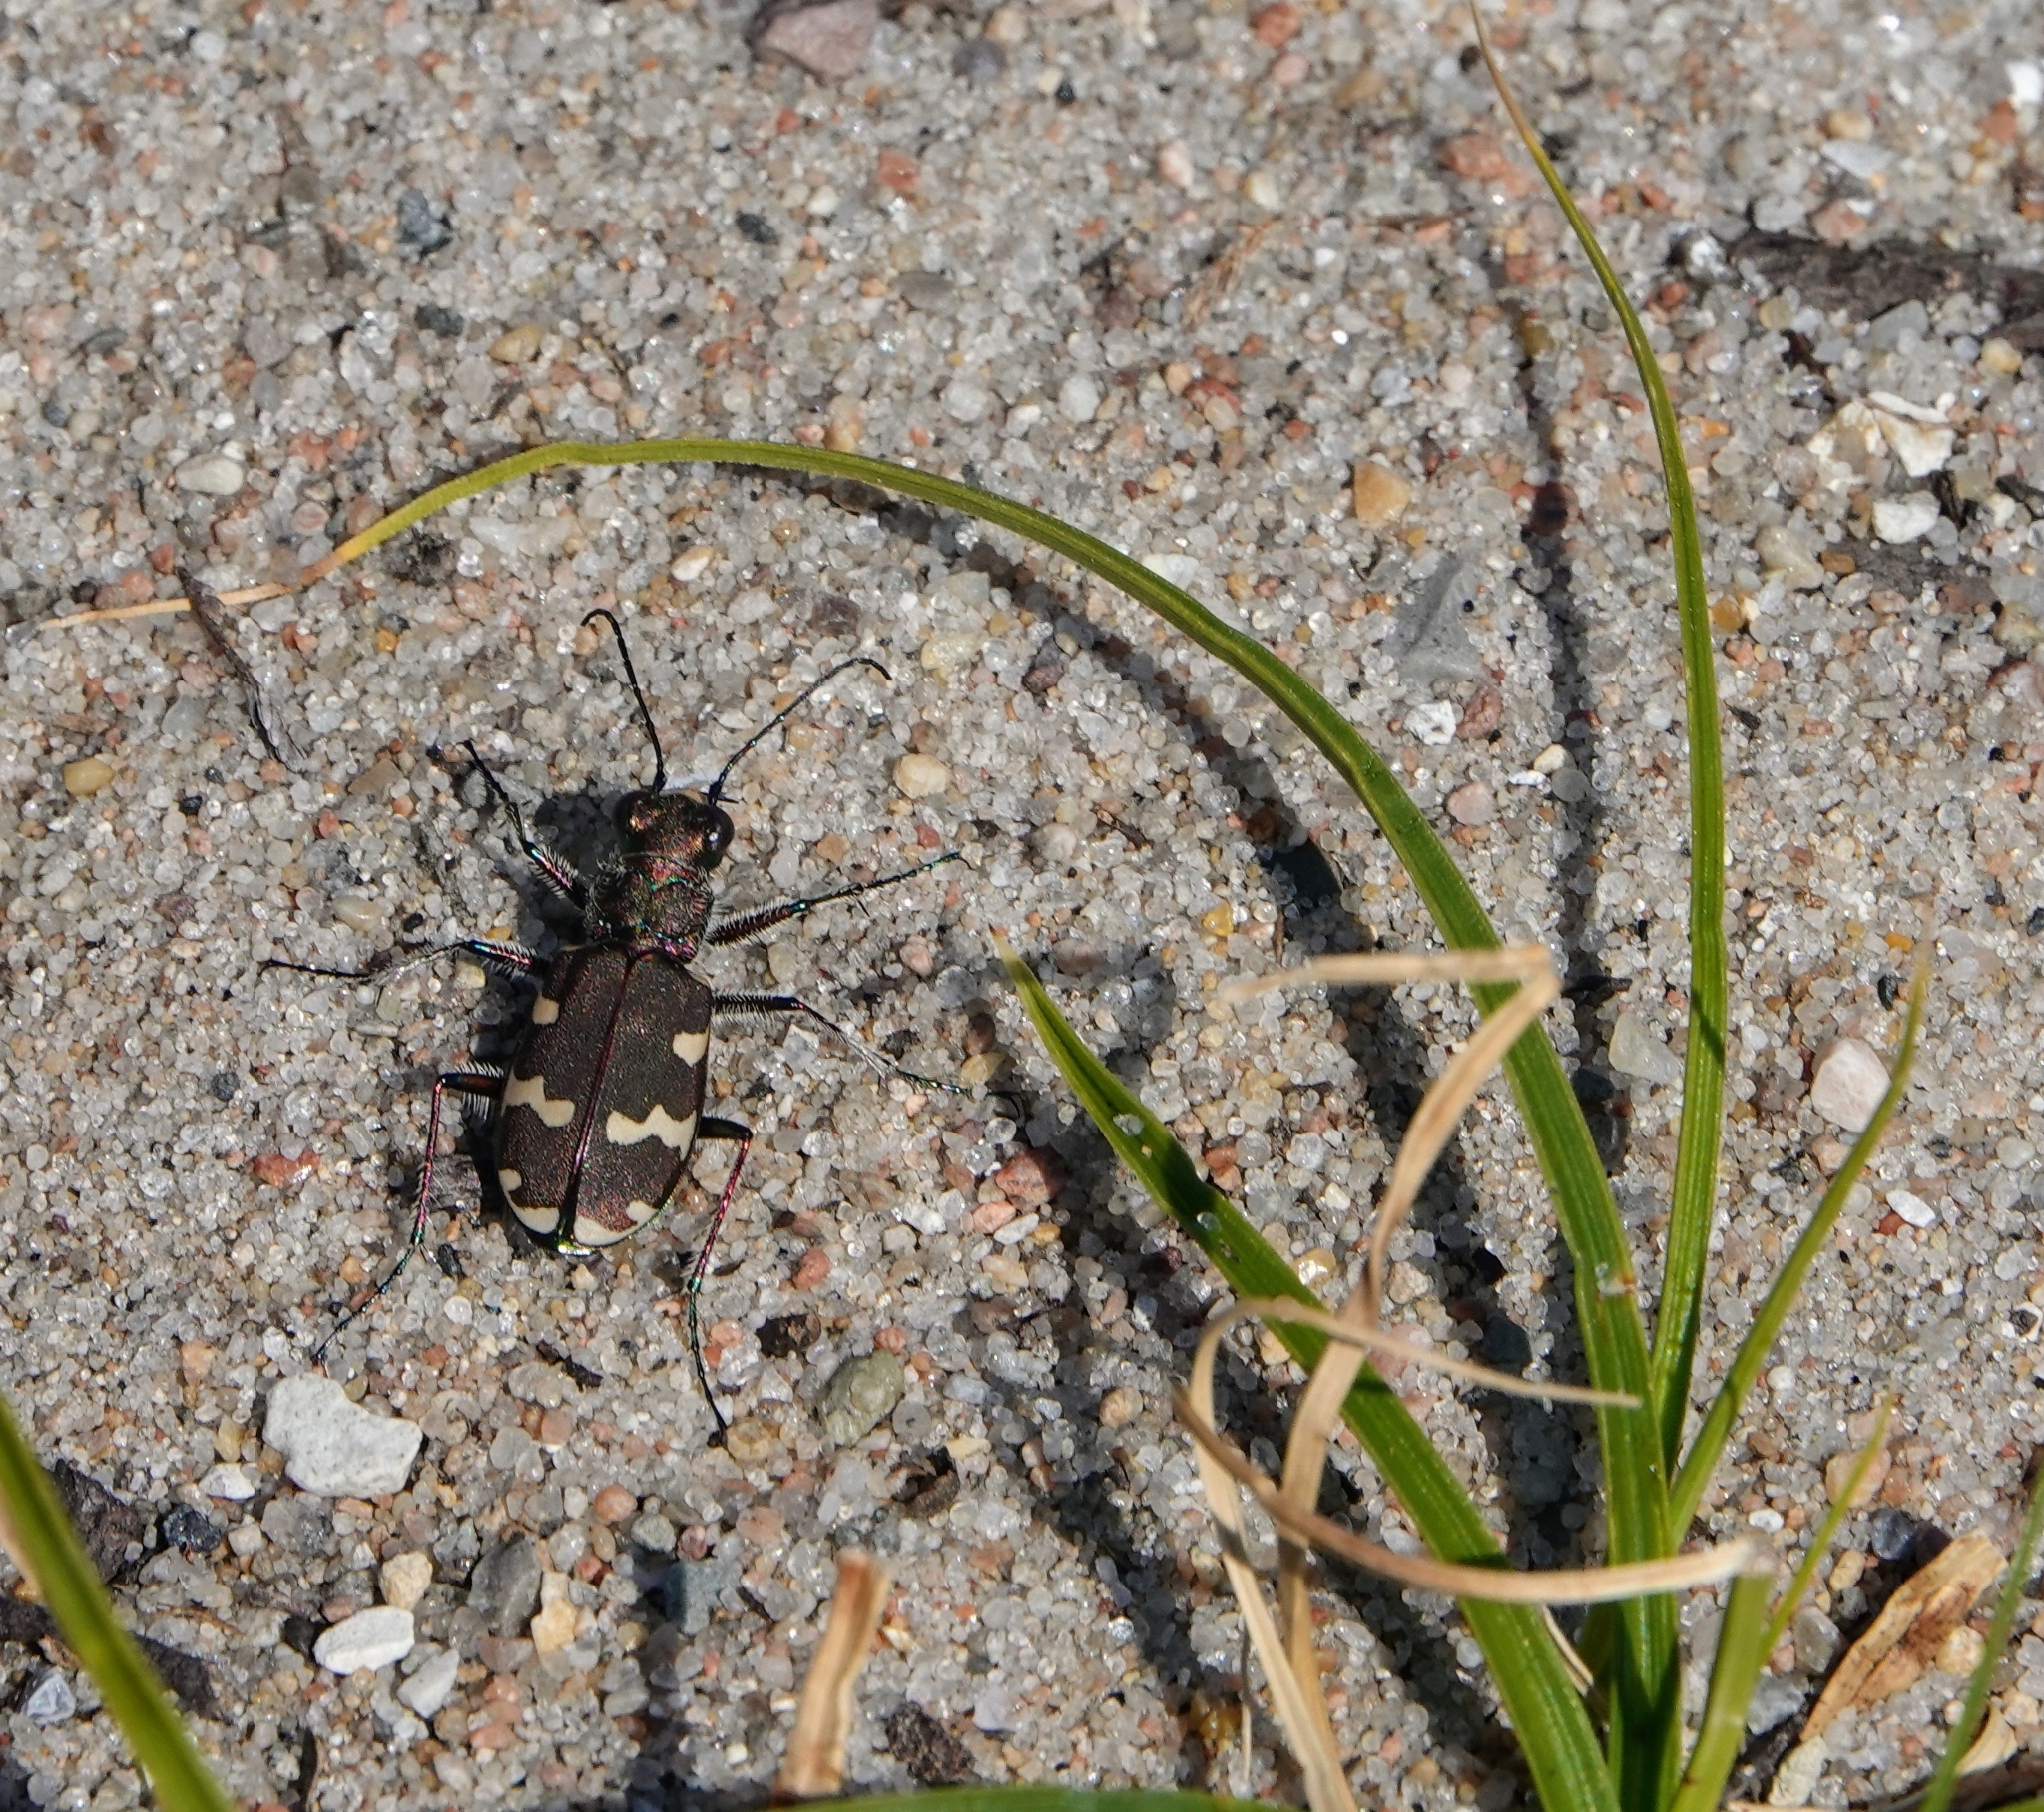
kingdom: Animalia
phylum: Arthropoda
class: Insecta
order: Coleoptera
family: Carabidae
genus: Cicindela
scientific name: Cicindela hybrida
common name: Northern dune tiger beetle
